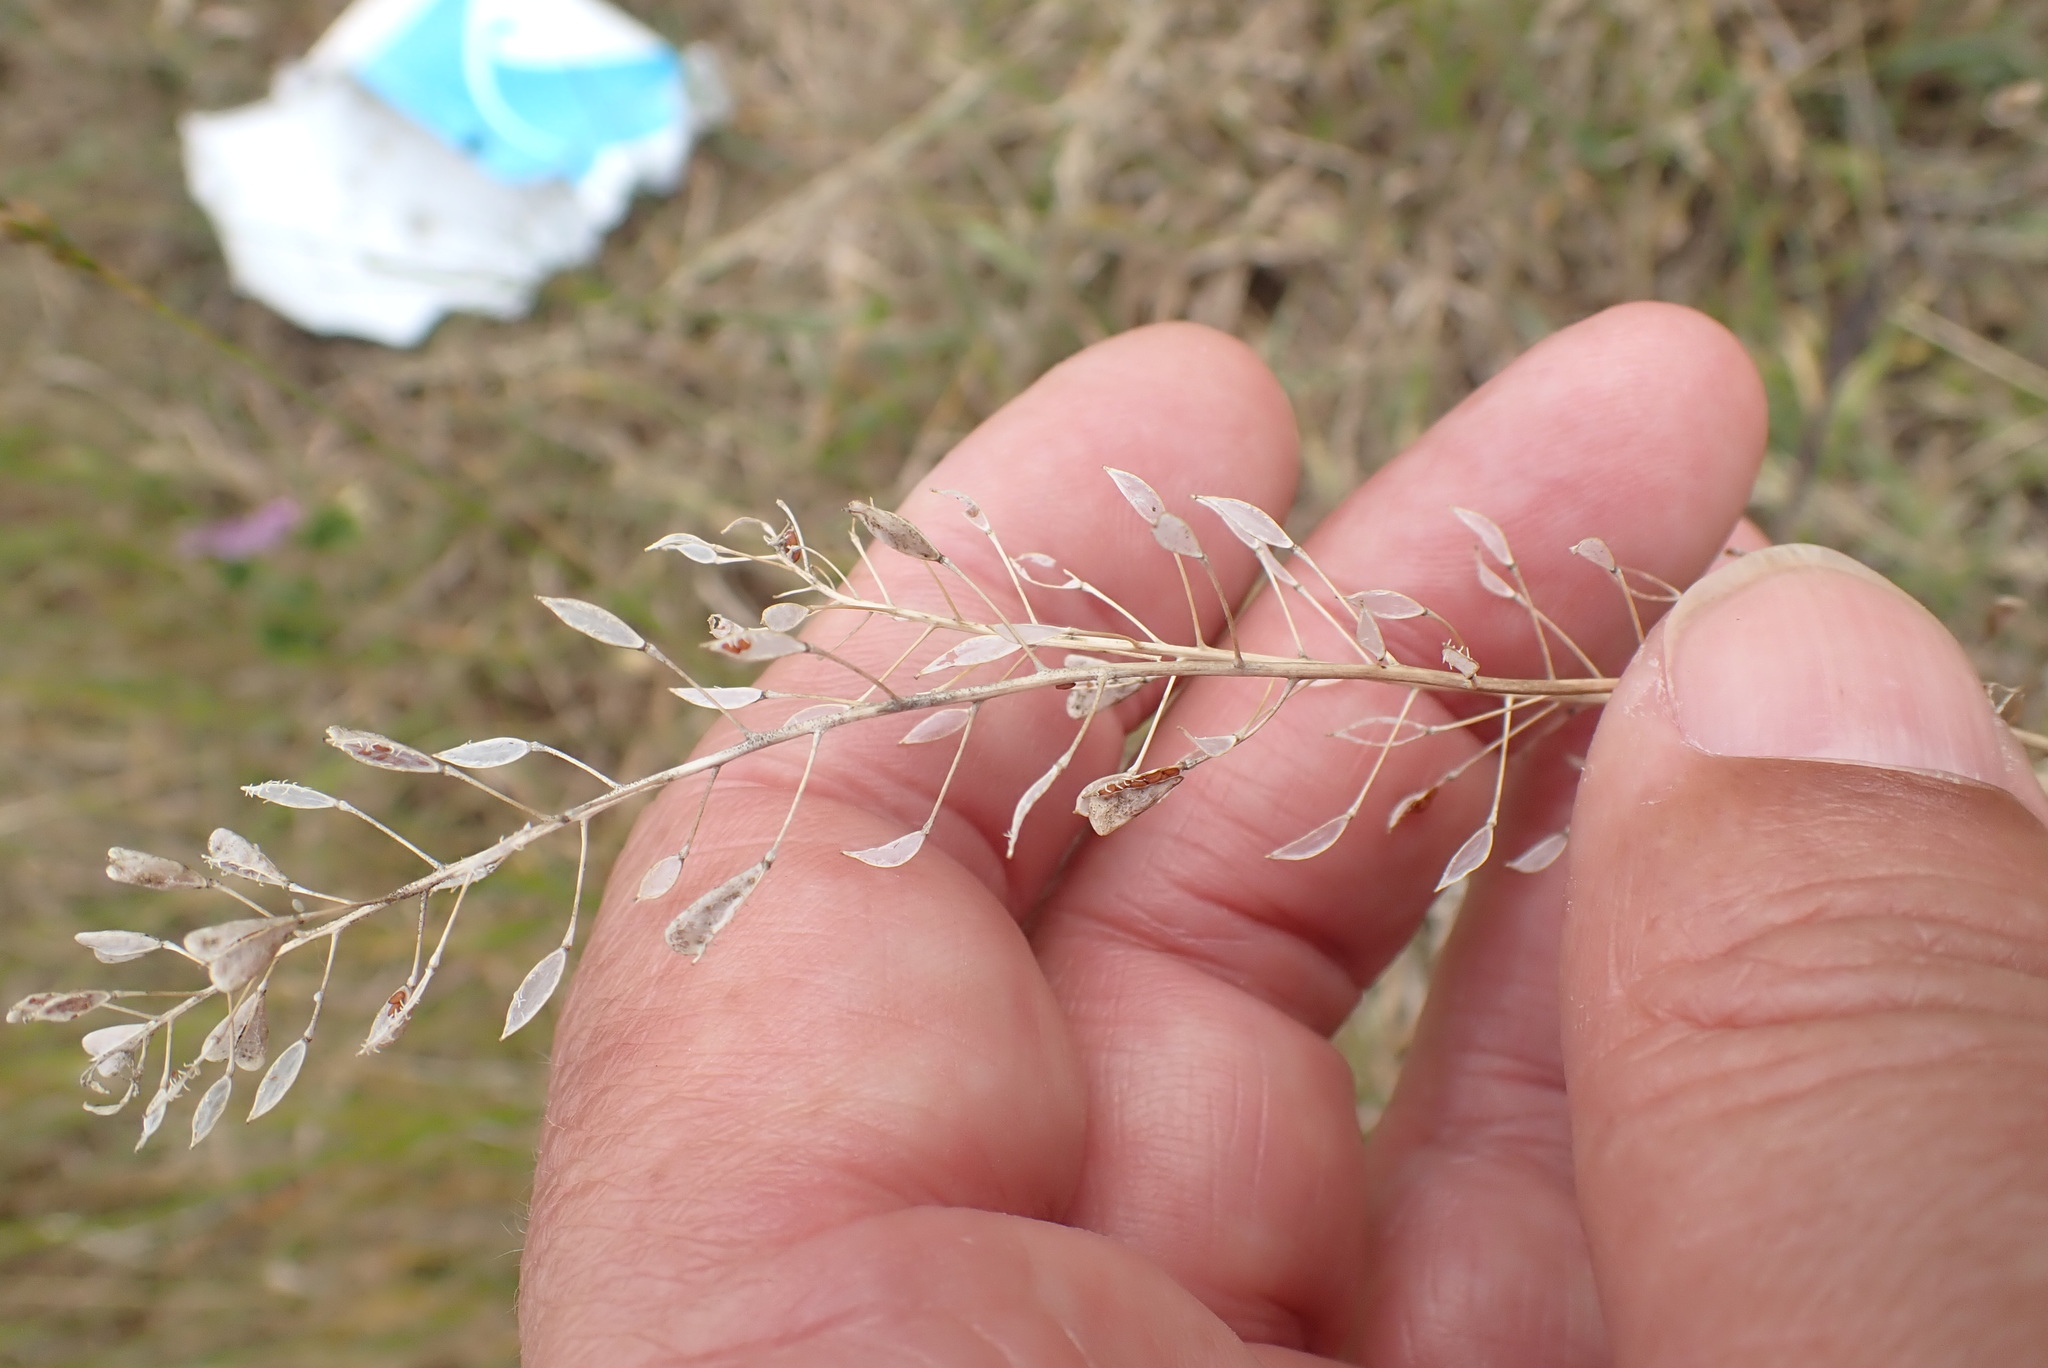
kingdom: Plantae
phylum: Tracheophyta
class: Magnoliopsida
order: Brassicales
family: Brassicaceae
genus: Capsella
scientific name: Capsella bursa-pastoris
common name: Shepherd's purse
